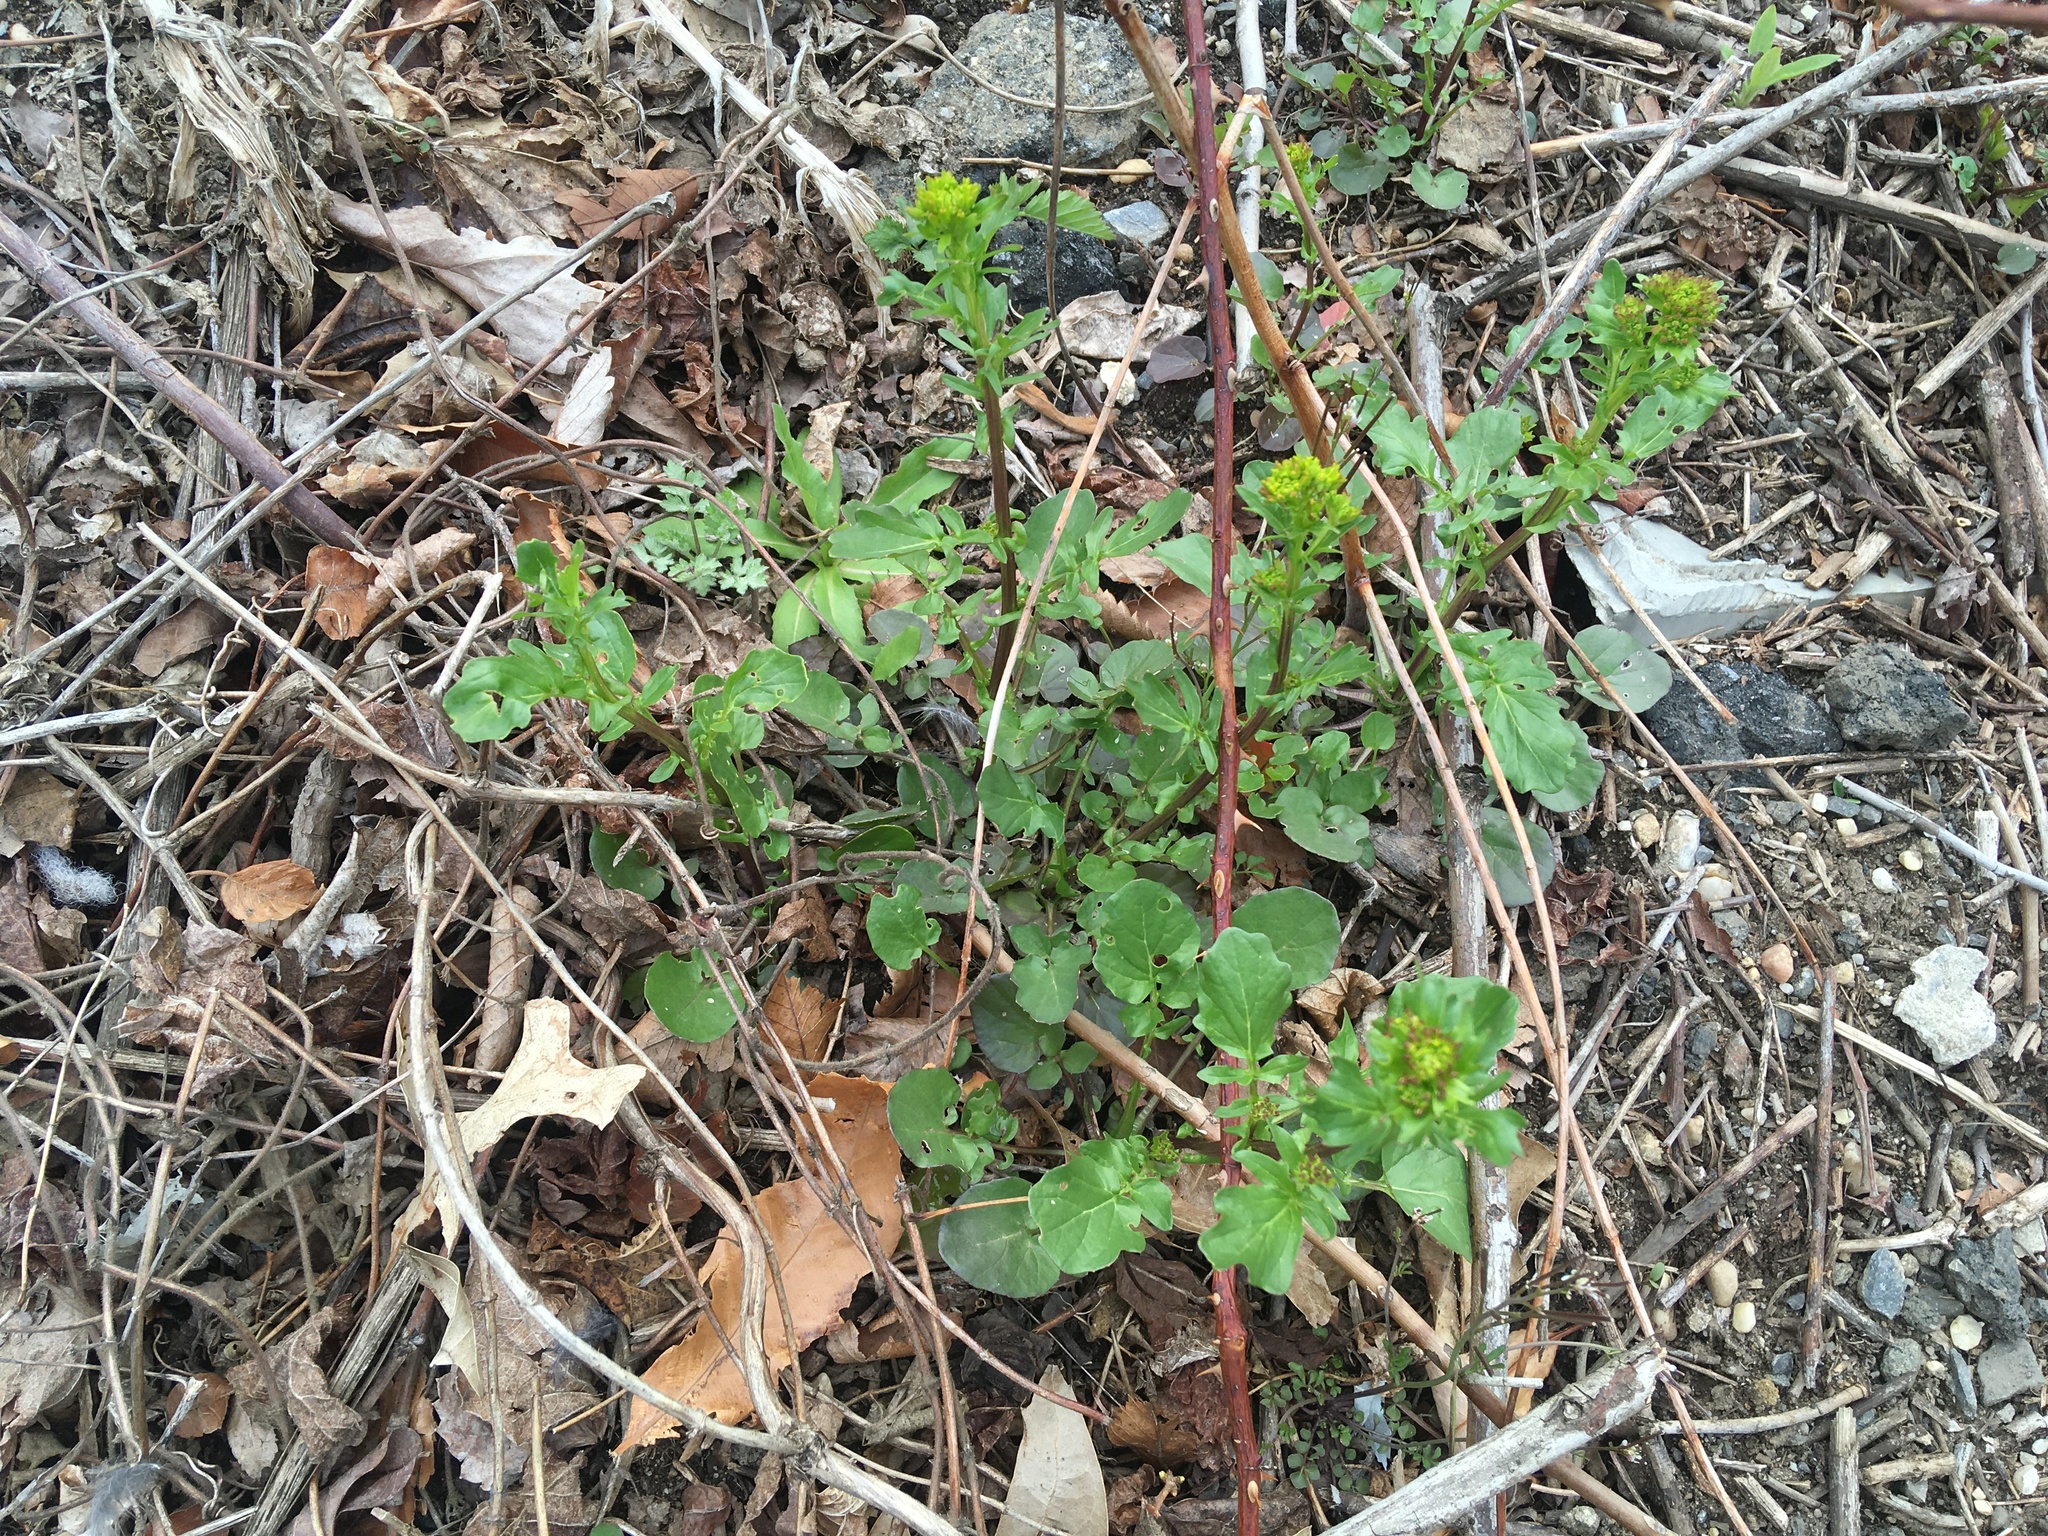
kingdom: Plantae
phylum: Tracheophyta
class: Magnoliopsida
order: Brassicales
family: Brassicaceae
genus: Barbarea
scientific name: Barbarea vulgaris
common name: Cressy-greens
